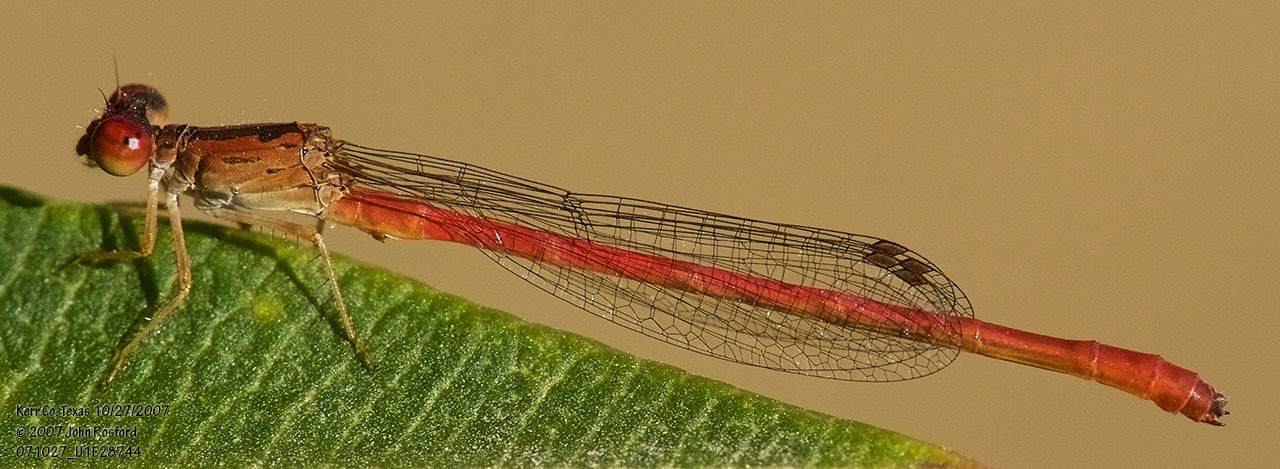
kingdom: Animalia
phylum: Arthropoda
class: Insecta
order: Odonata
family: Coenagrionidae
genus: Telebasis
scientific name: Telebasis salva
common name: Desert firetail
